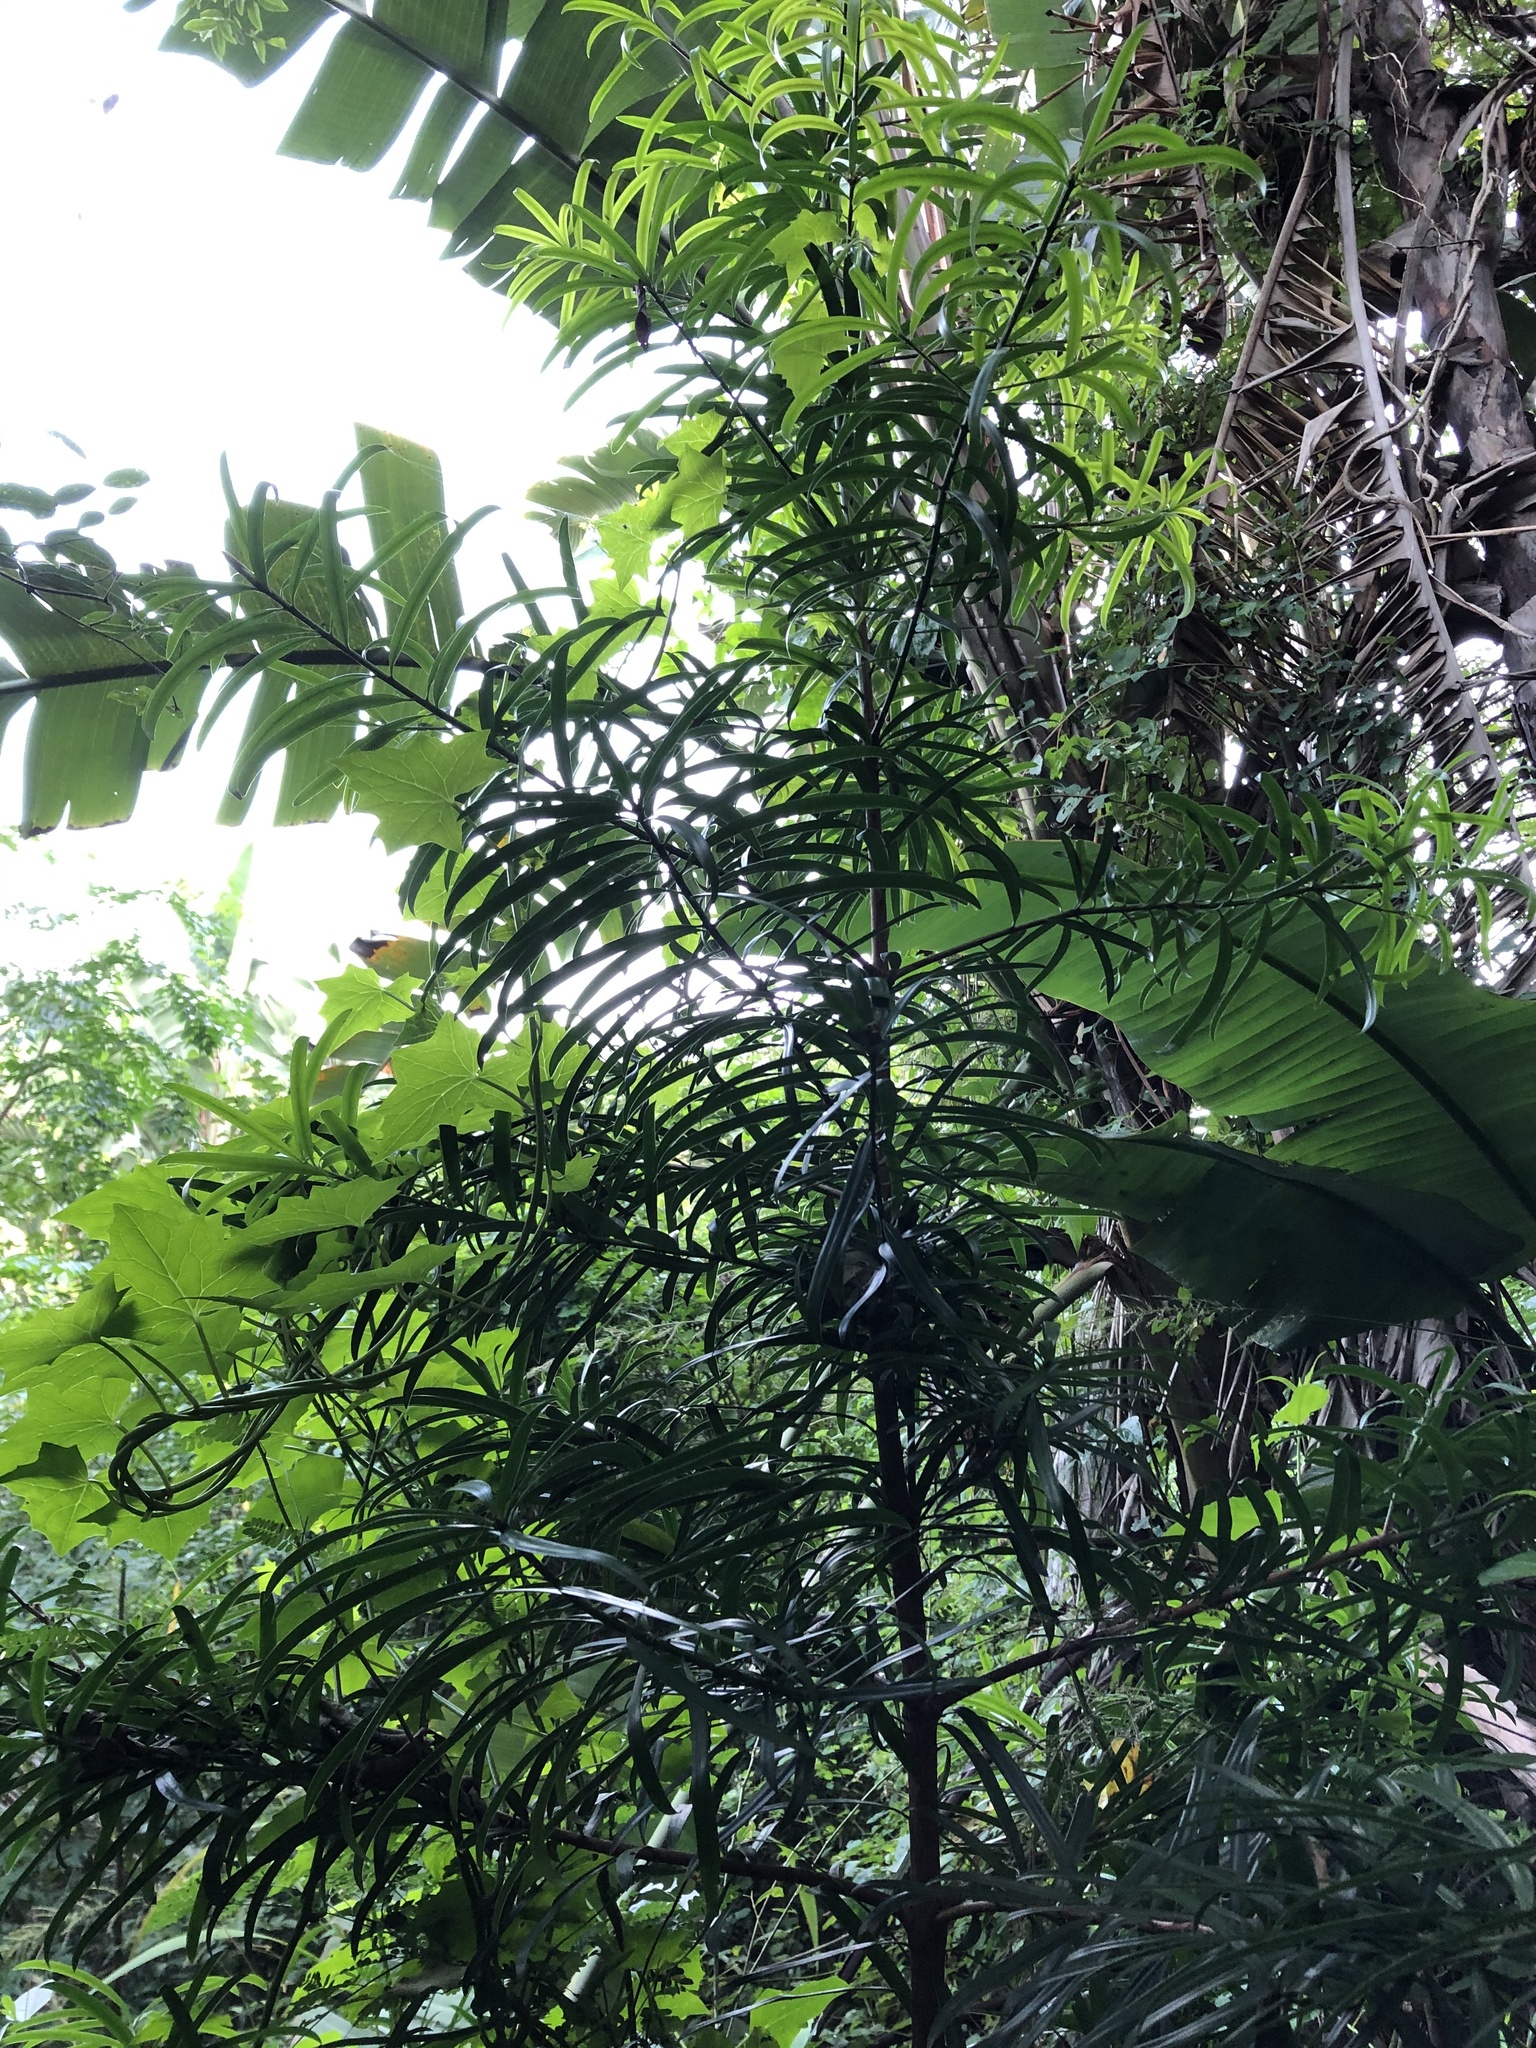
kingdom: Plantae
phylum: Tracheophyta
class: Pinopsida
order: Pinales
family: Podocarpaceae
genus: Podocarpus
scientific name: Podocarpus henkelii
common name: Henkel's yellowwood
